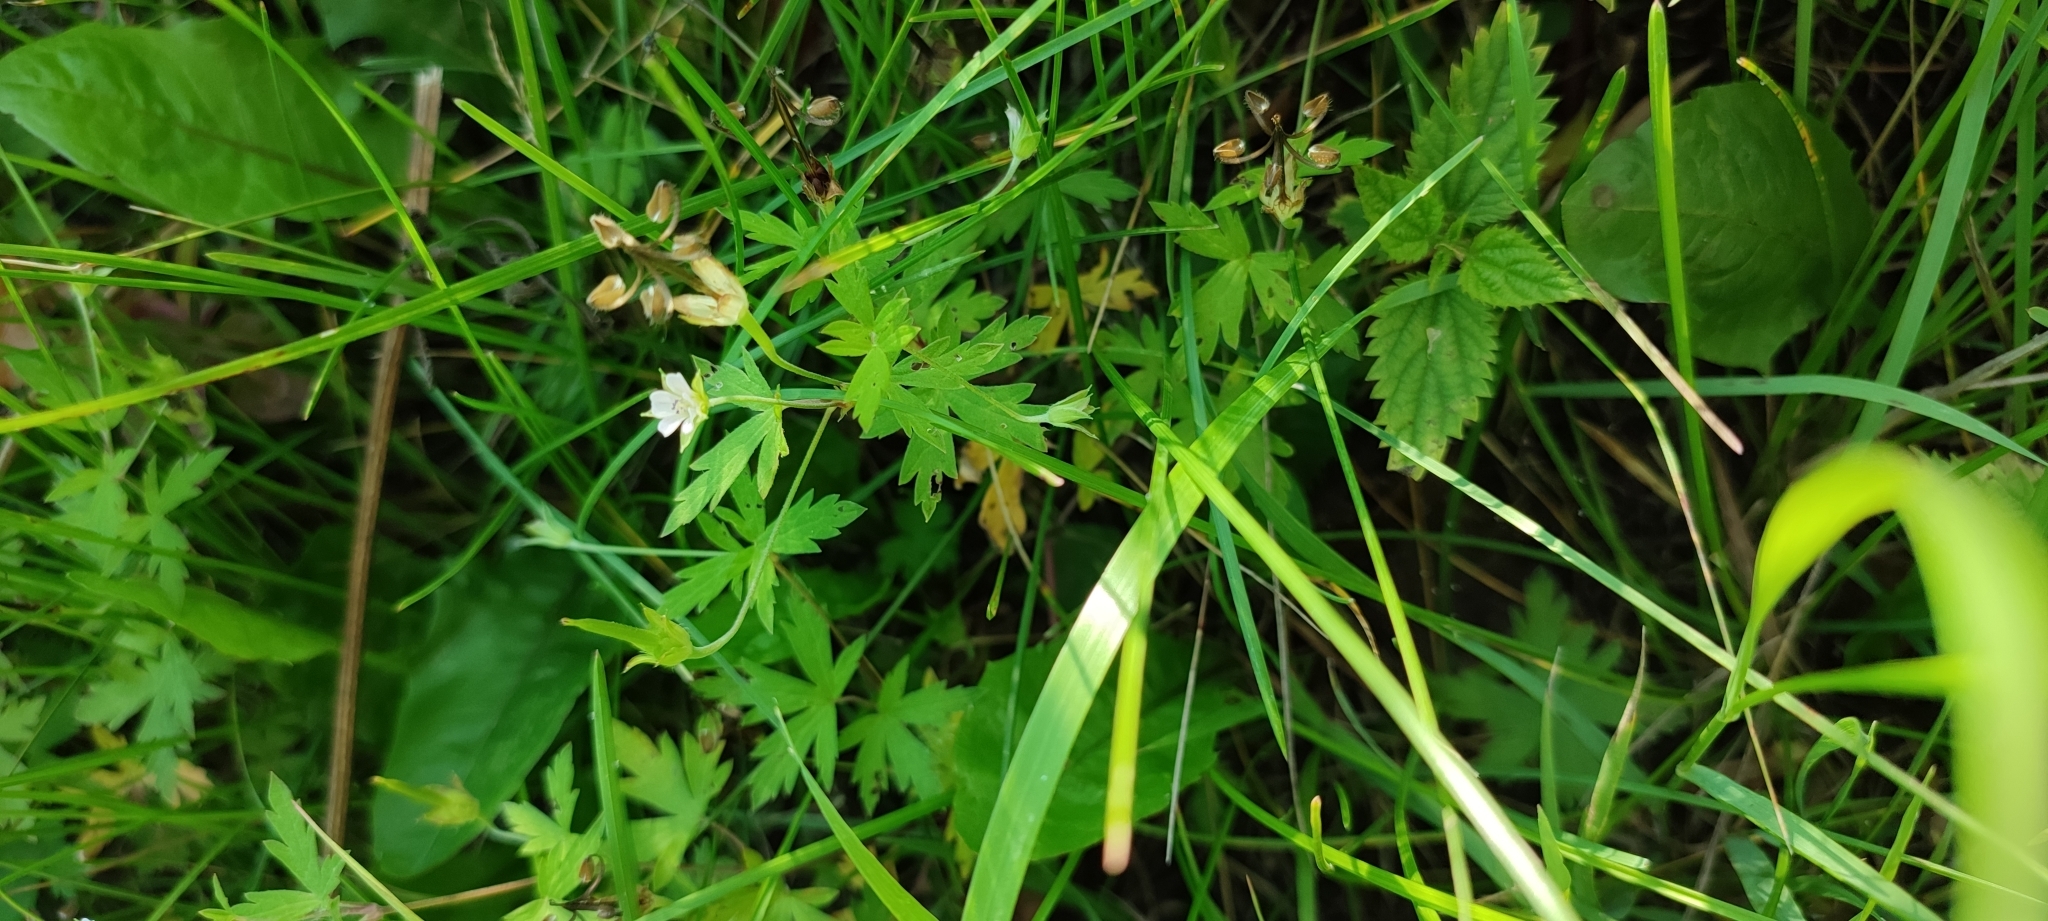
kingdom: Plantae
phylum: Tracheophyta
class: Magnoliopsida
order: Geraniales
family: Geraniaceae
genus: Geranium
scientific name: Geranium sibiricum
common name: Siberian crane's-bill
